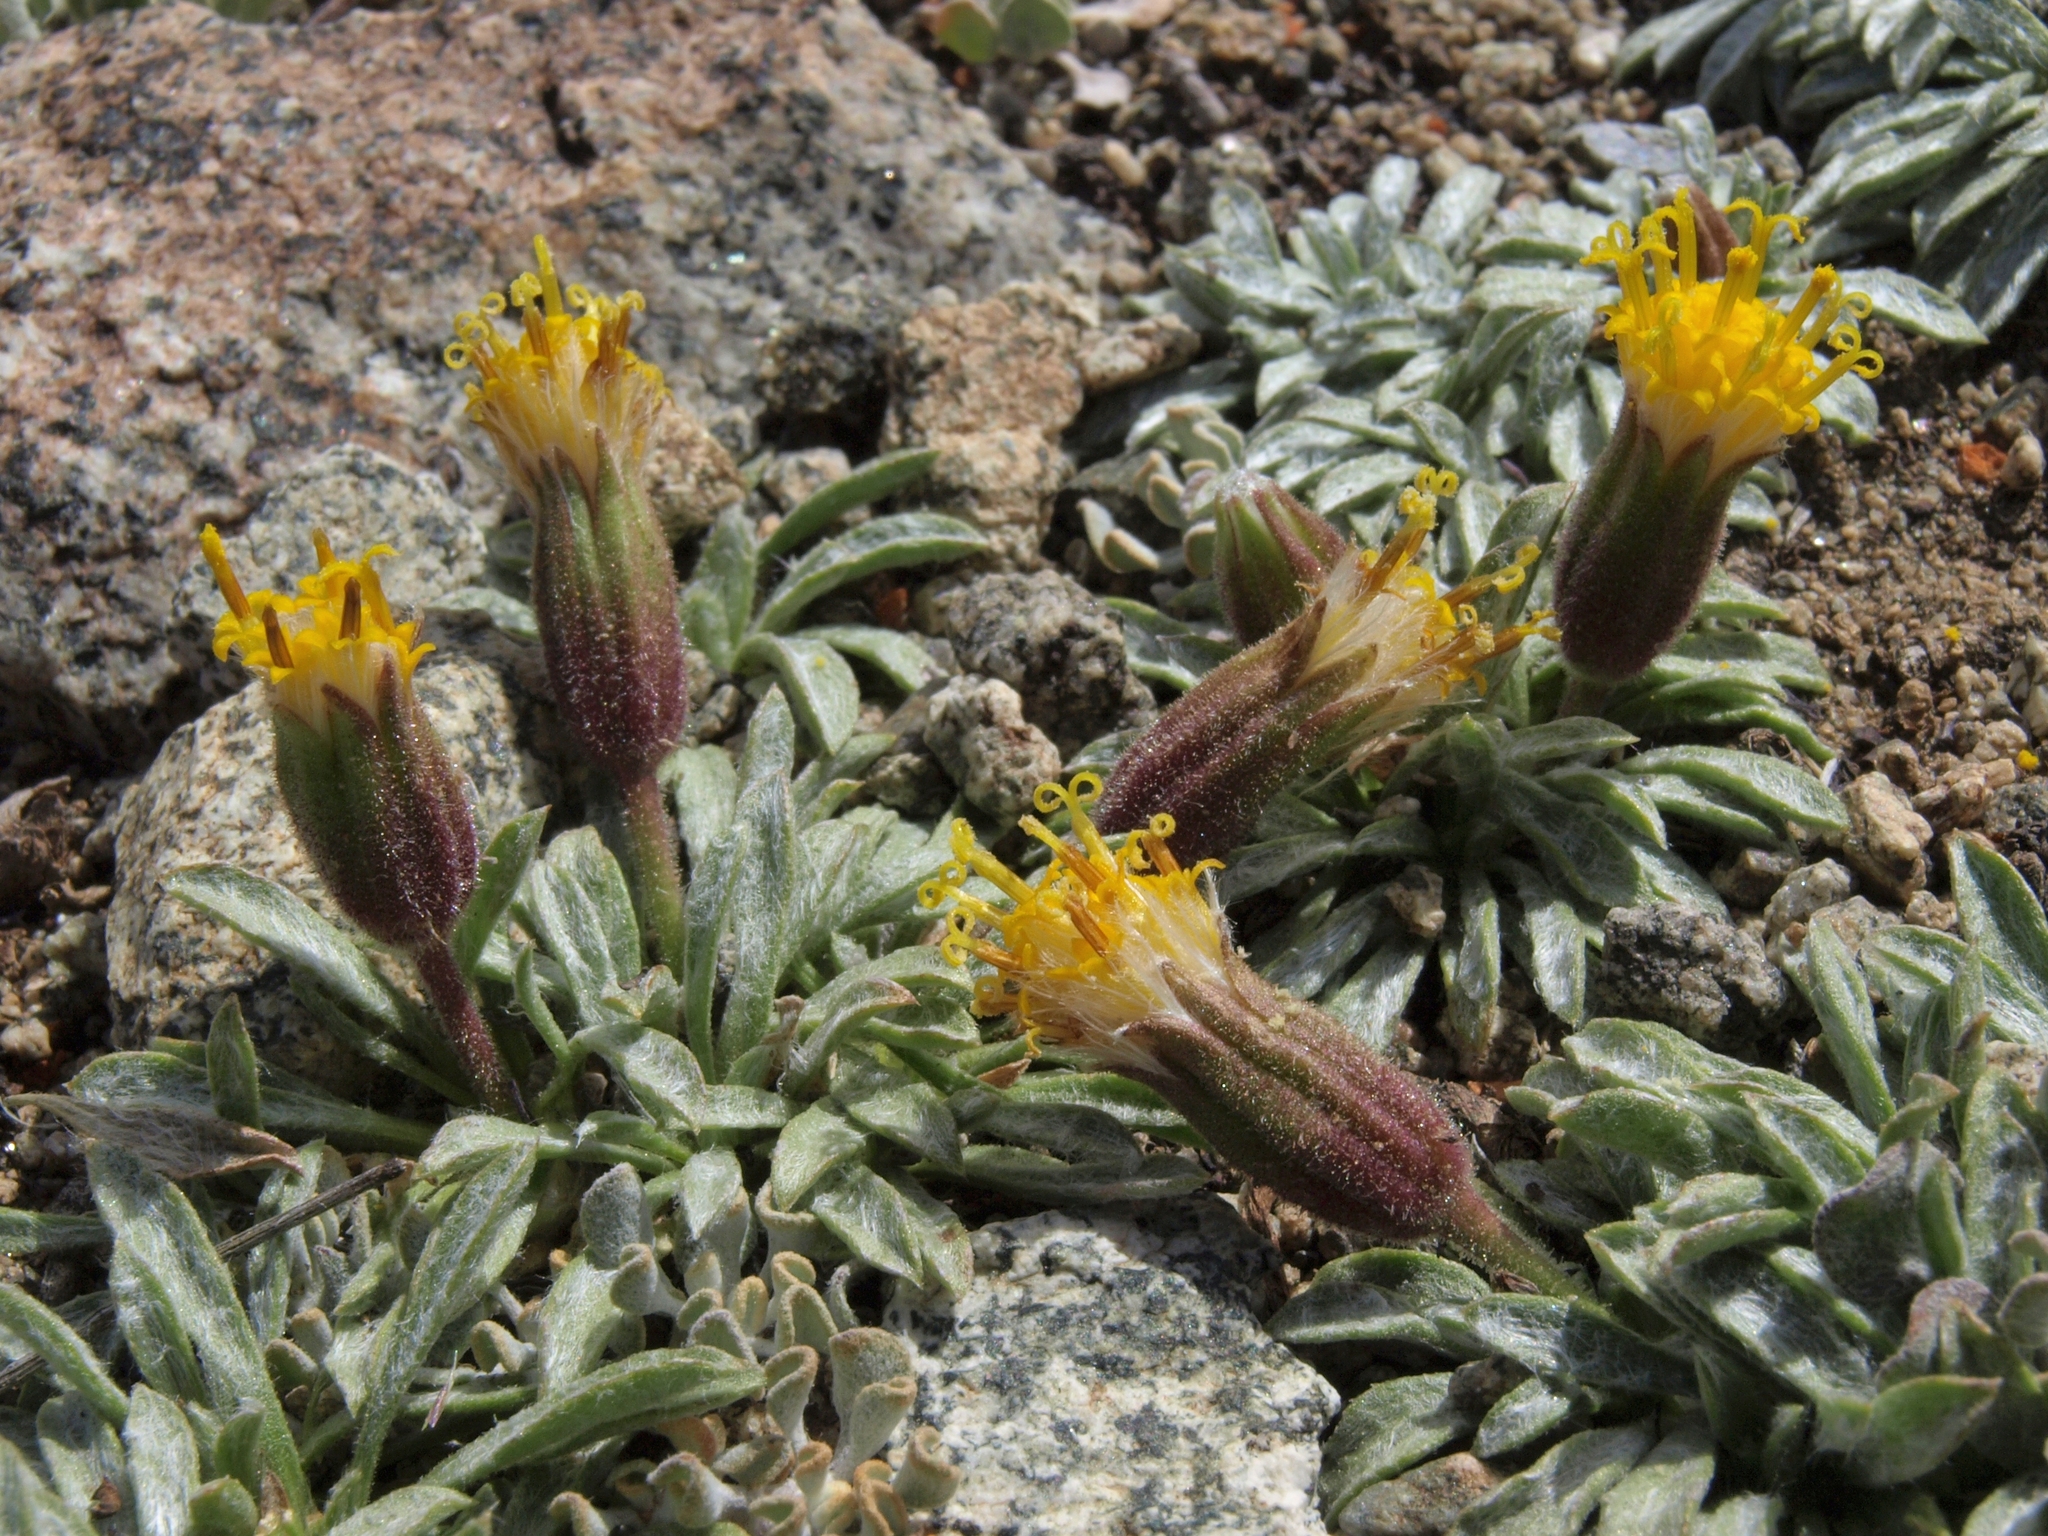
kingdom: Plantae
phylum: Tracheophyta
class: Magnoliopsida
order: Asterales
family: Asteraceae
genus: Raillardella
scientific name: Raillardella argentea
